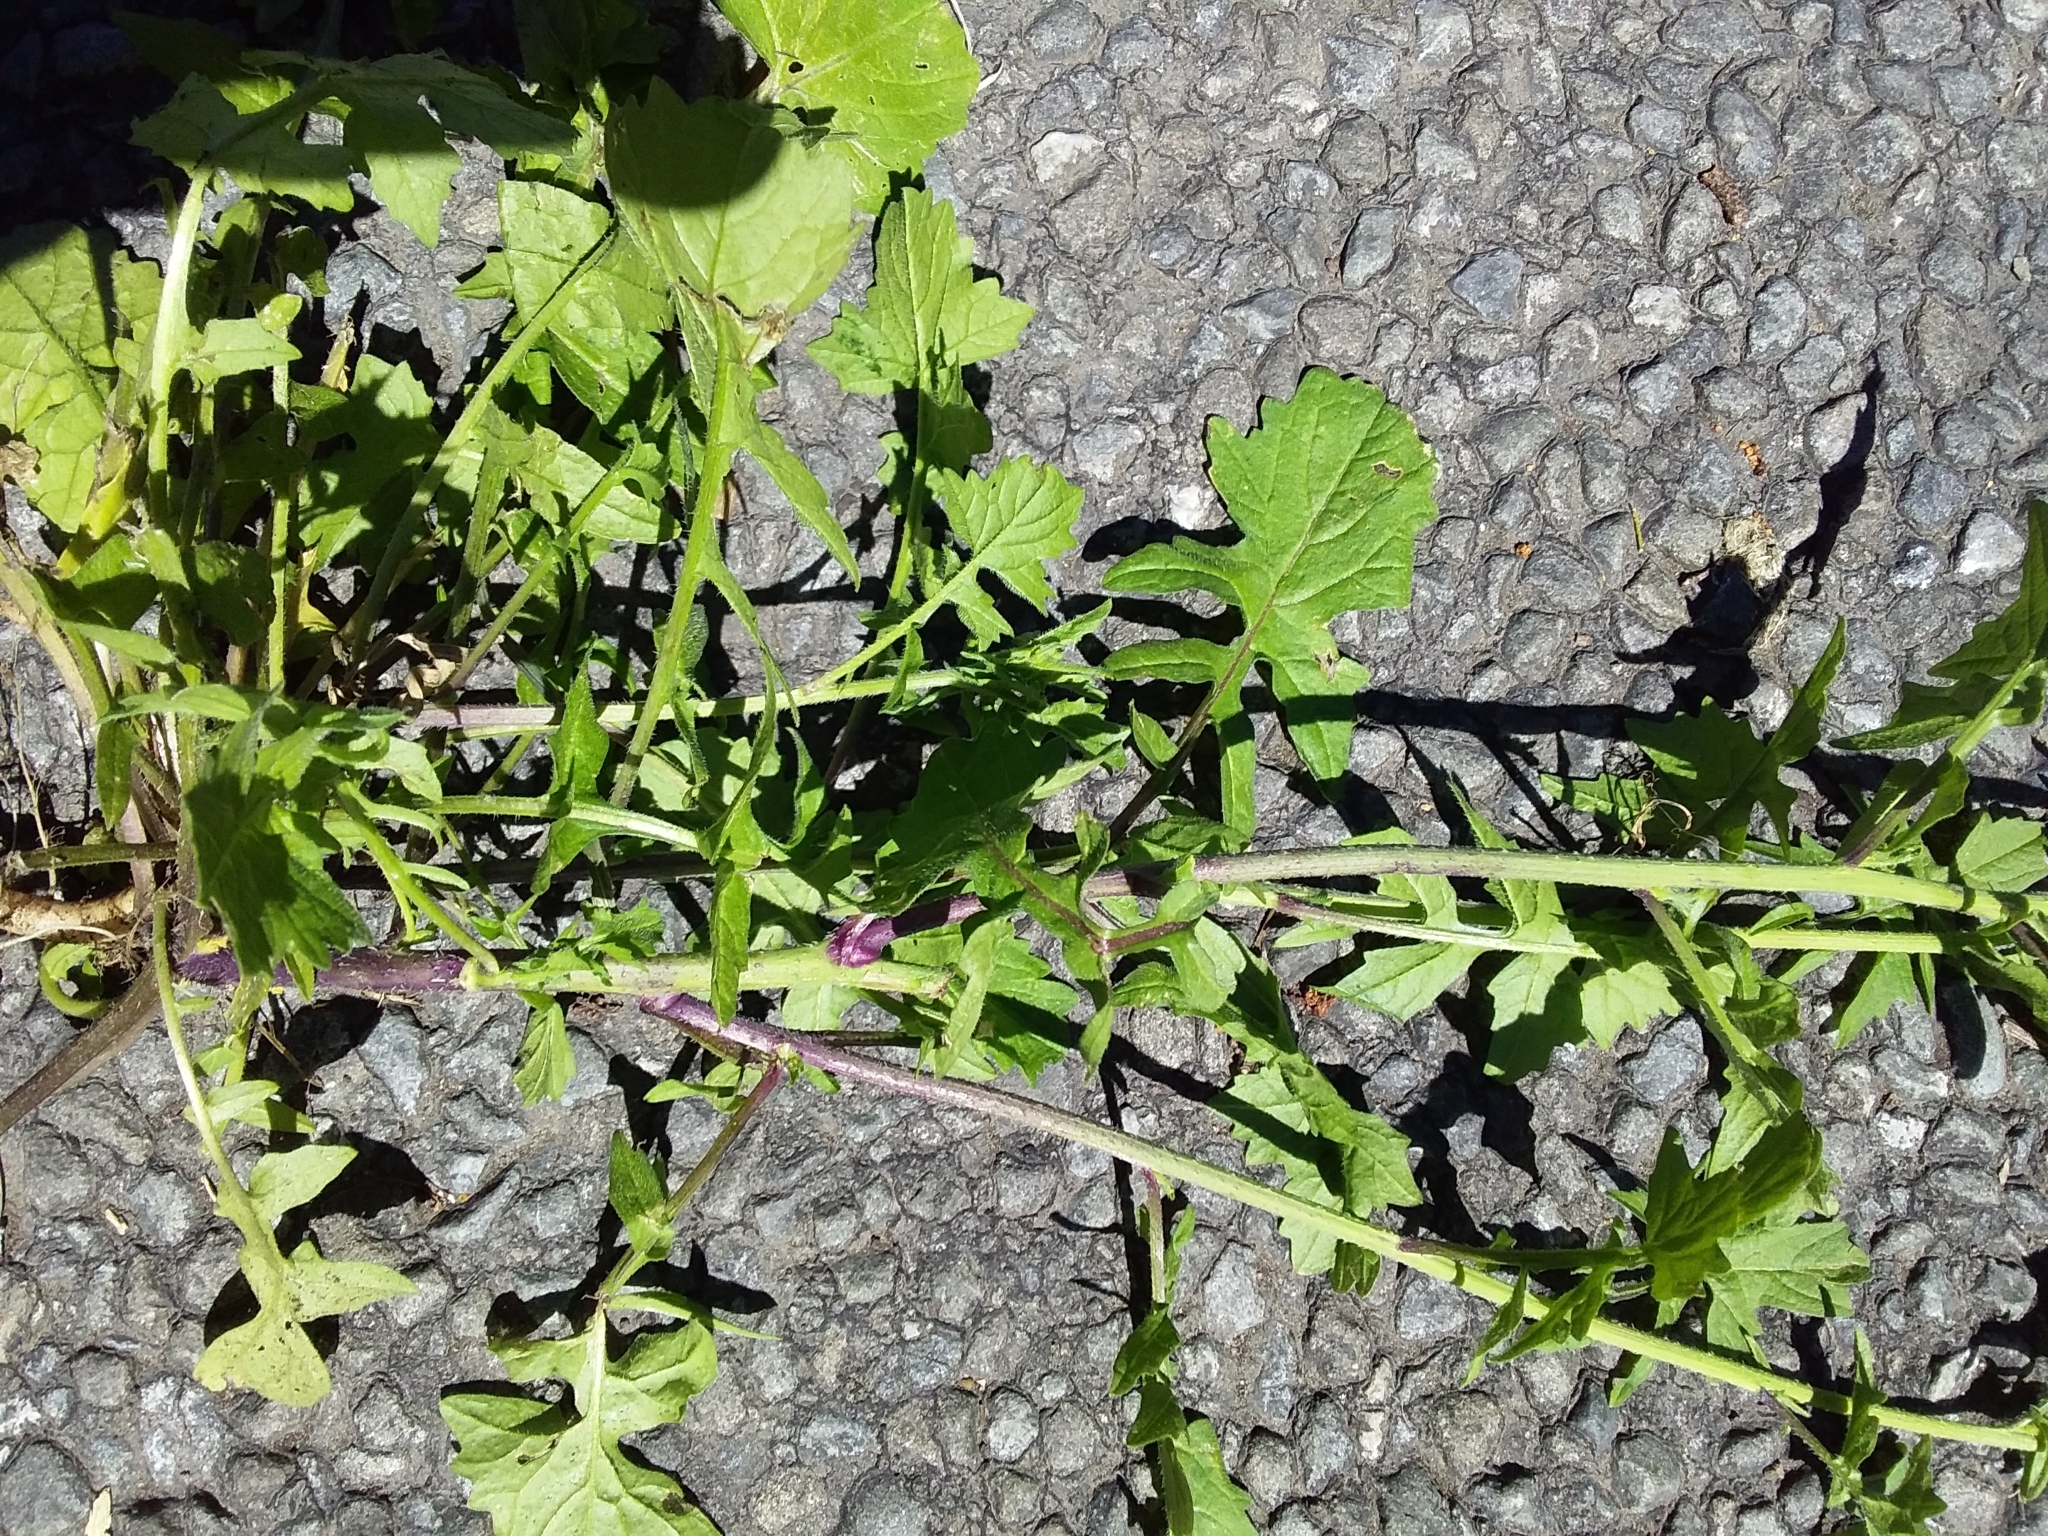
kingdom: Plantae
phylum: Tracheophyta
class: Magnoliopsida
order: Brassicales
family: Brassicaceae
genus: Sisymbrium
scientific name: Sisymbrium officinale
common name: Hedge mustard
